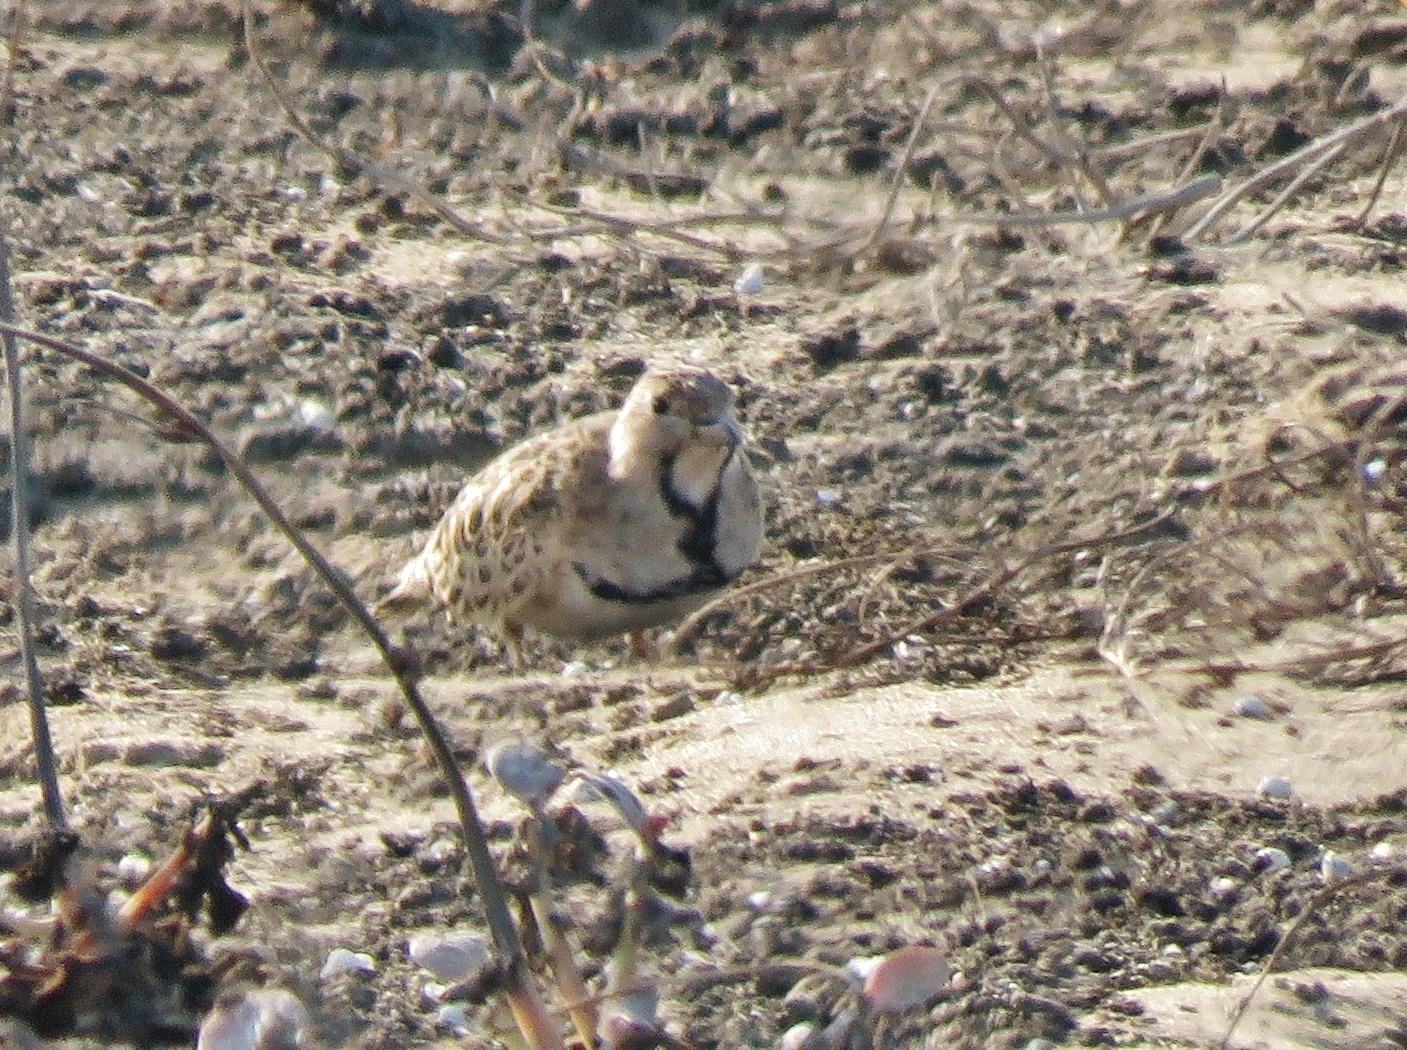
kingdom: Animalia
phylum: Chordata
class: Aves
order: Charadriiformes
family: Thinocoridae
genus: Thinocorus
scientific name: Thinocorus rumicivorus
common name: Least seedsnipe
